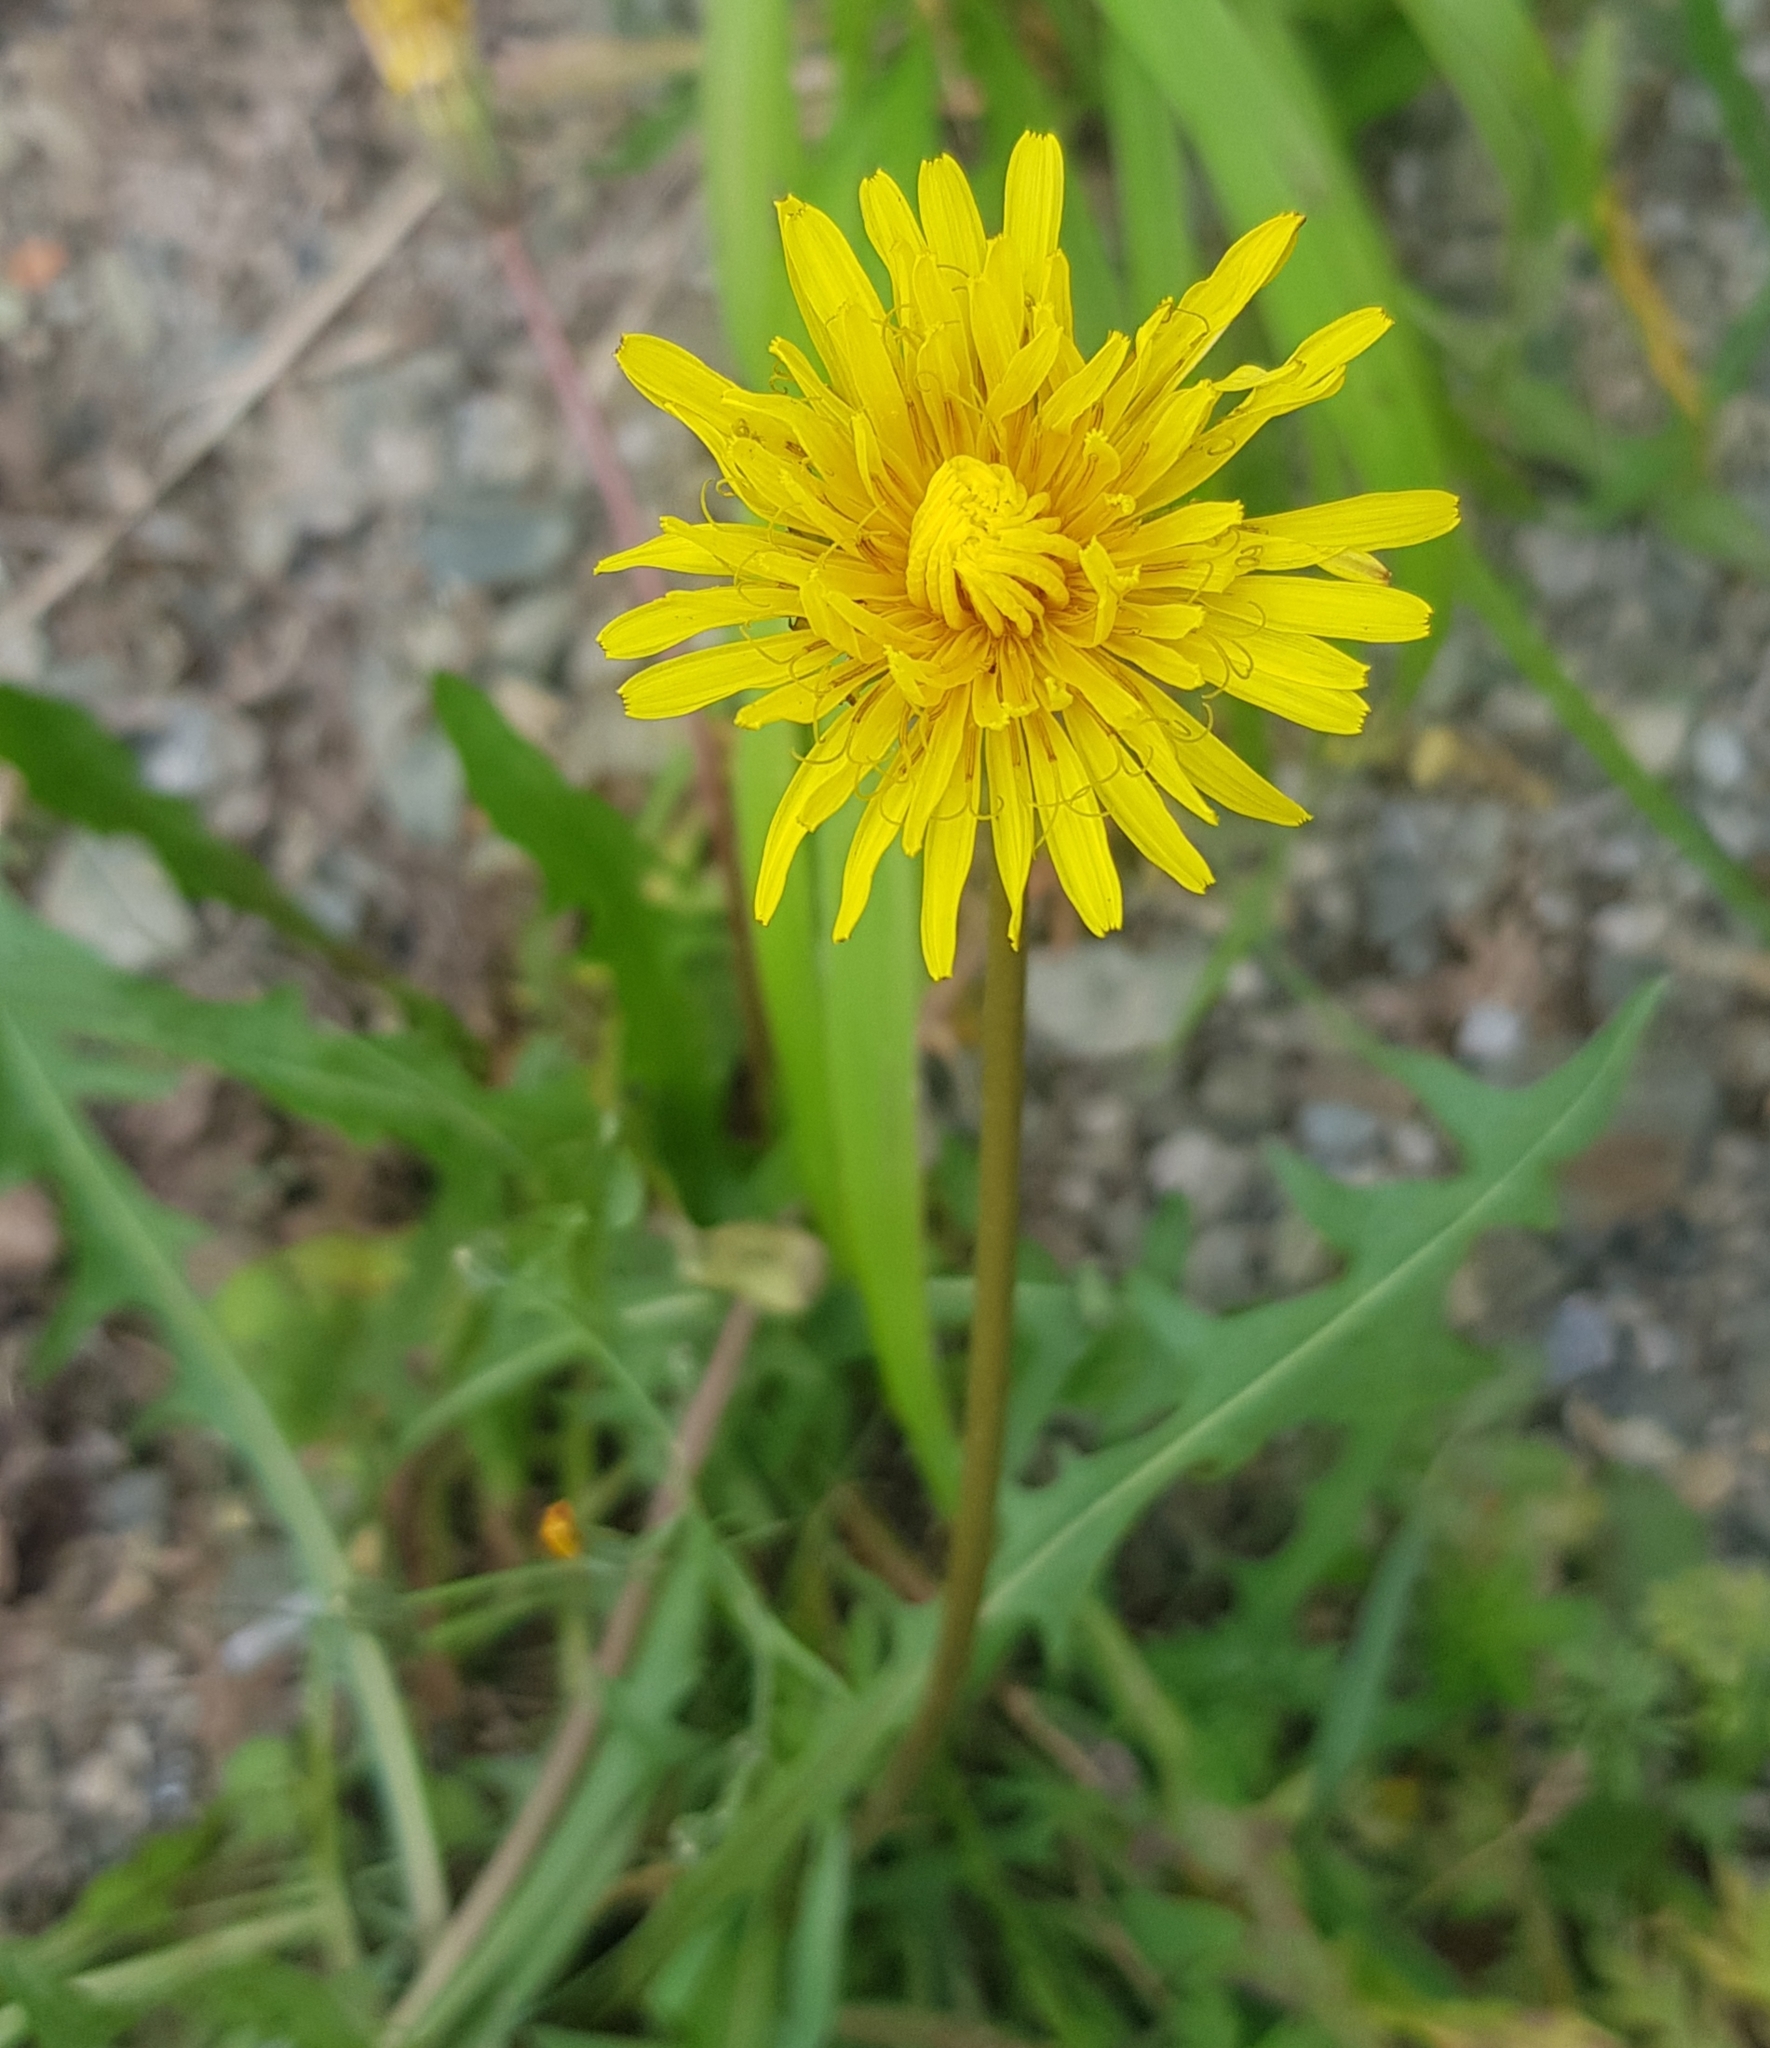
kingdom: Plantae
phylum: Tracheophyta
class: Magnoliopsida
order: Asterales
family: Asteraceae
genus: Taraxacum
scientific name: Taraxacum officinale
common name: Common dandelion
